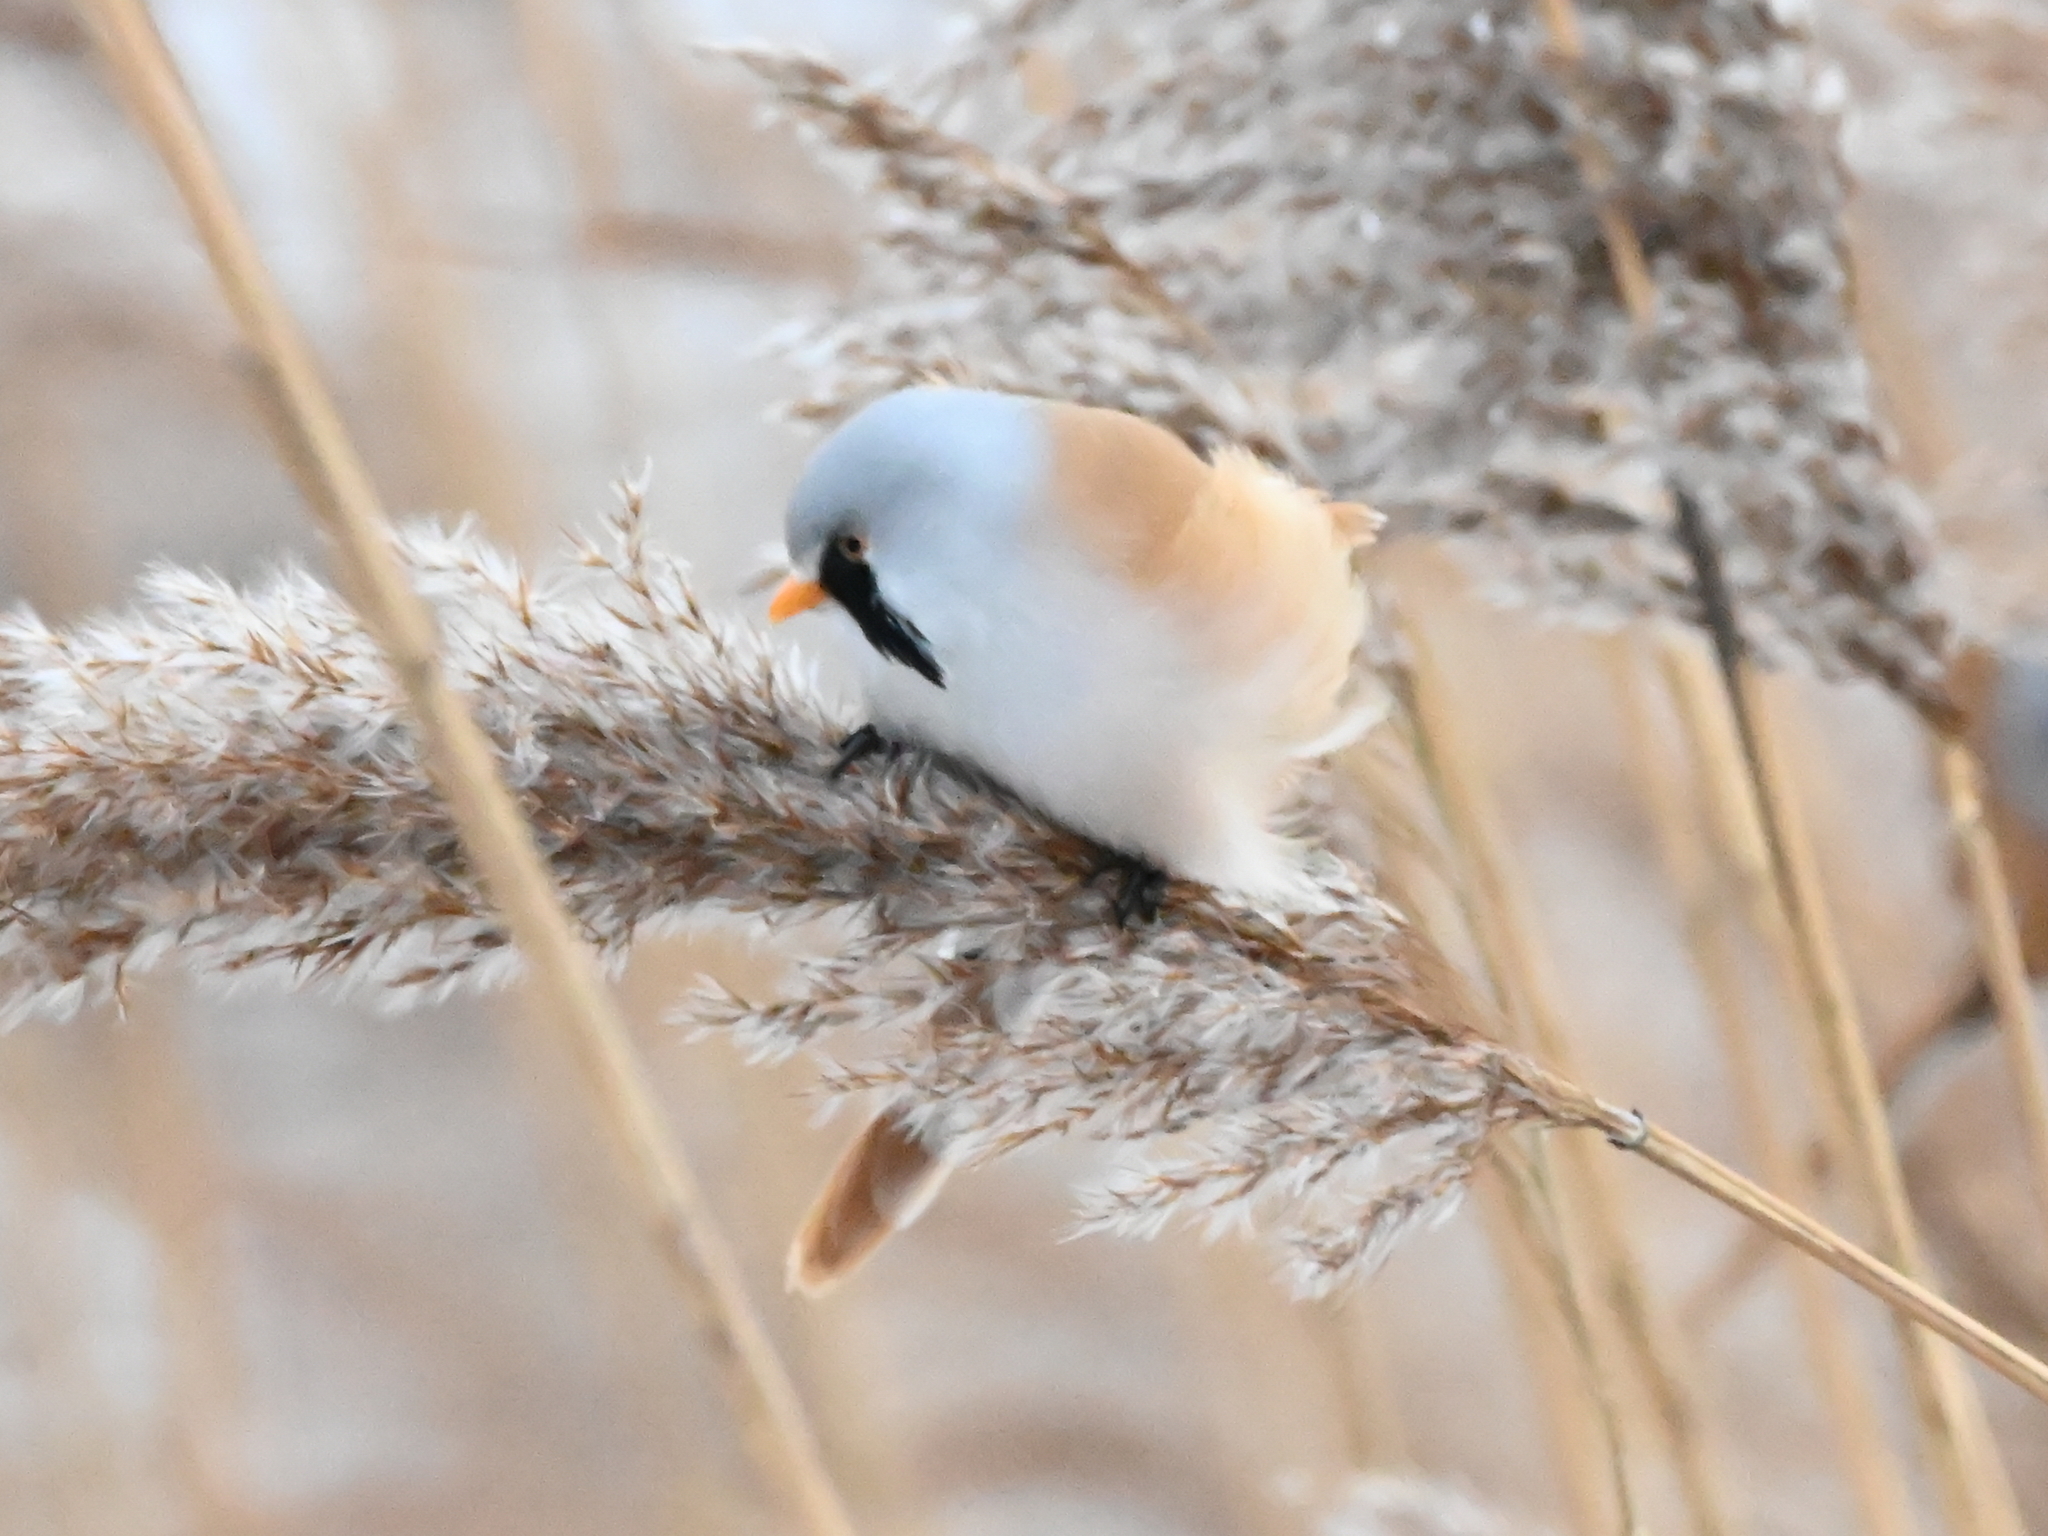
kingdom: Animalia
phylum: Chordata
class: Aves
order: Passeriformes
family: Panuridae
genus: Panurus
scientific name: Panurus biarmicus
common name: Bearded reedling
